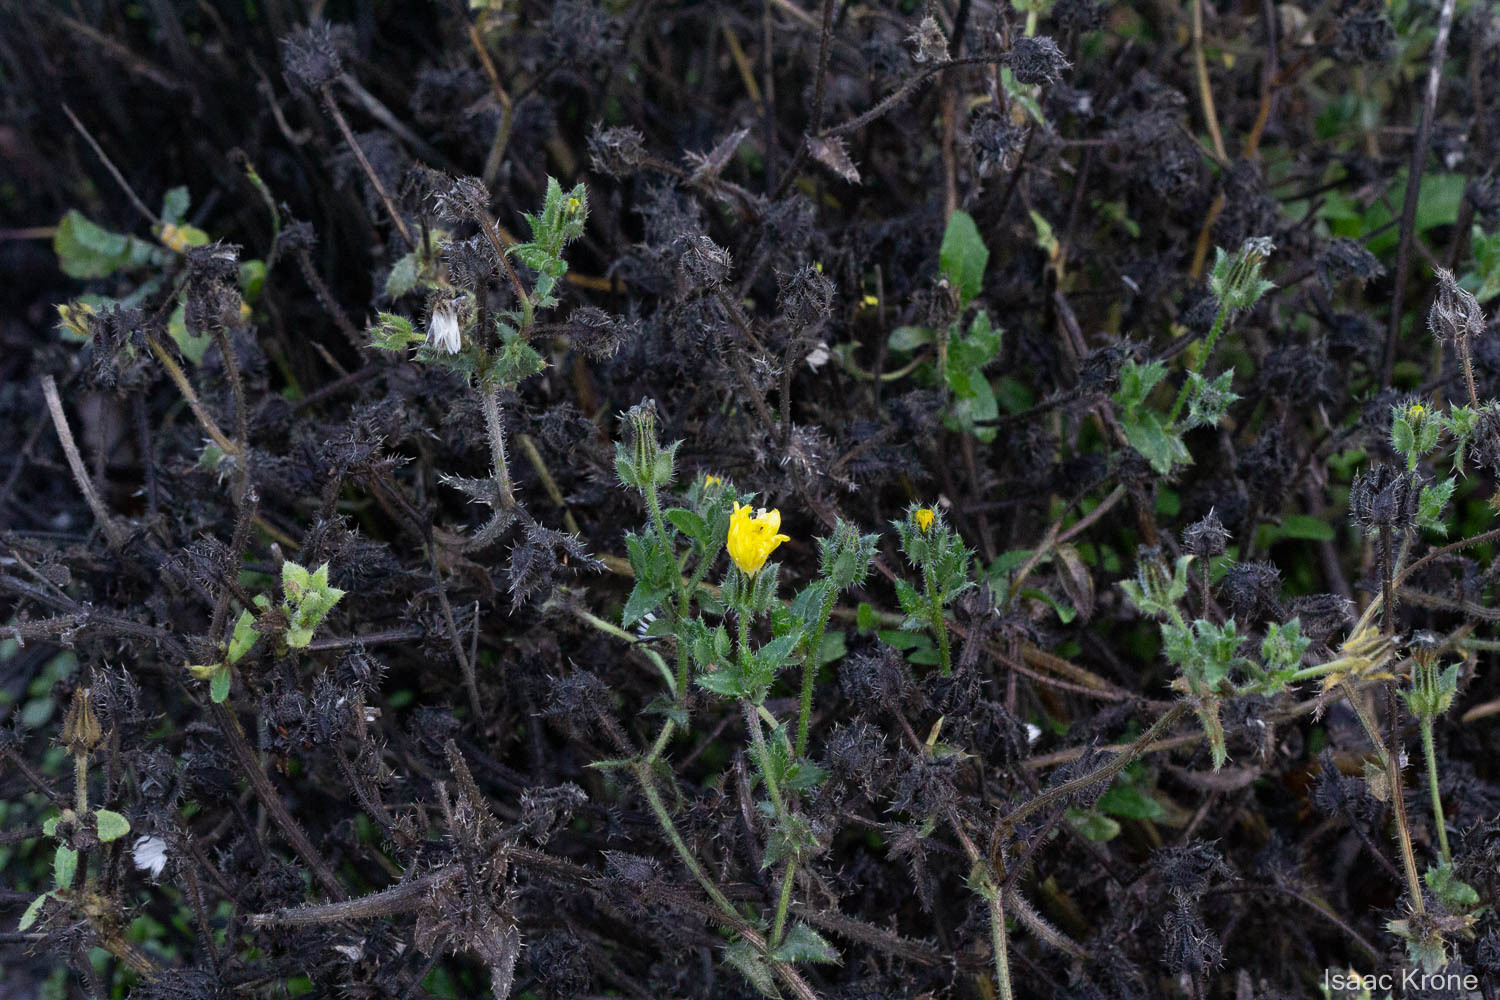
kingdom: Plantae
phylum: Tracheophyta
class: Magnoliopsida
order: Asterales
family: Asteraceae
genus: Helminthotheca
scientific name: Helminthotheca echioides
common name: Ox-tongue
